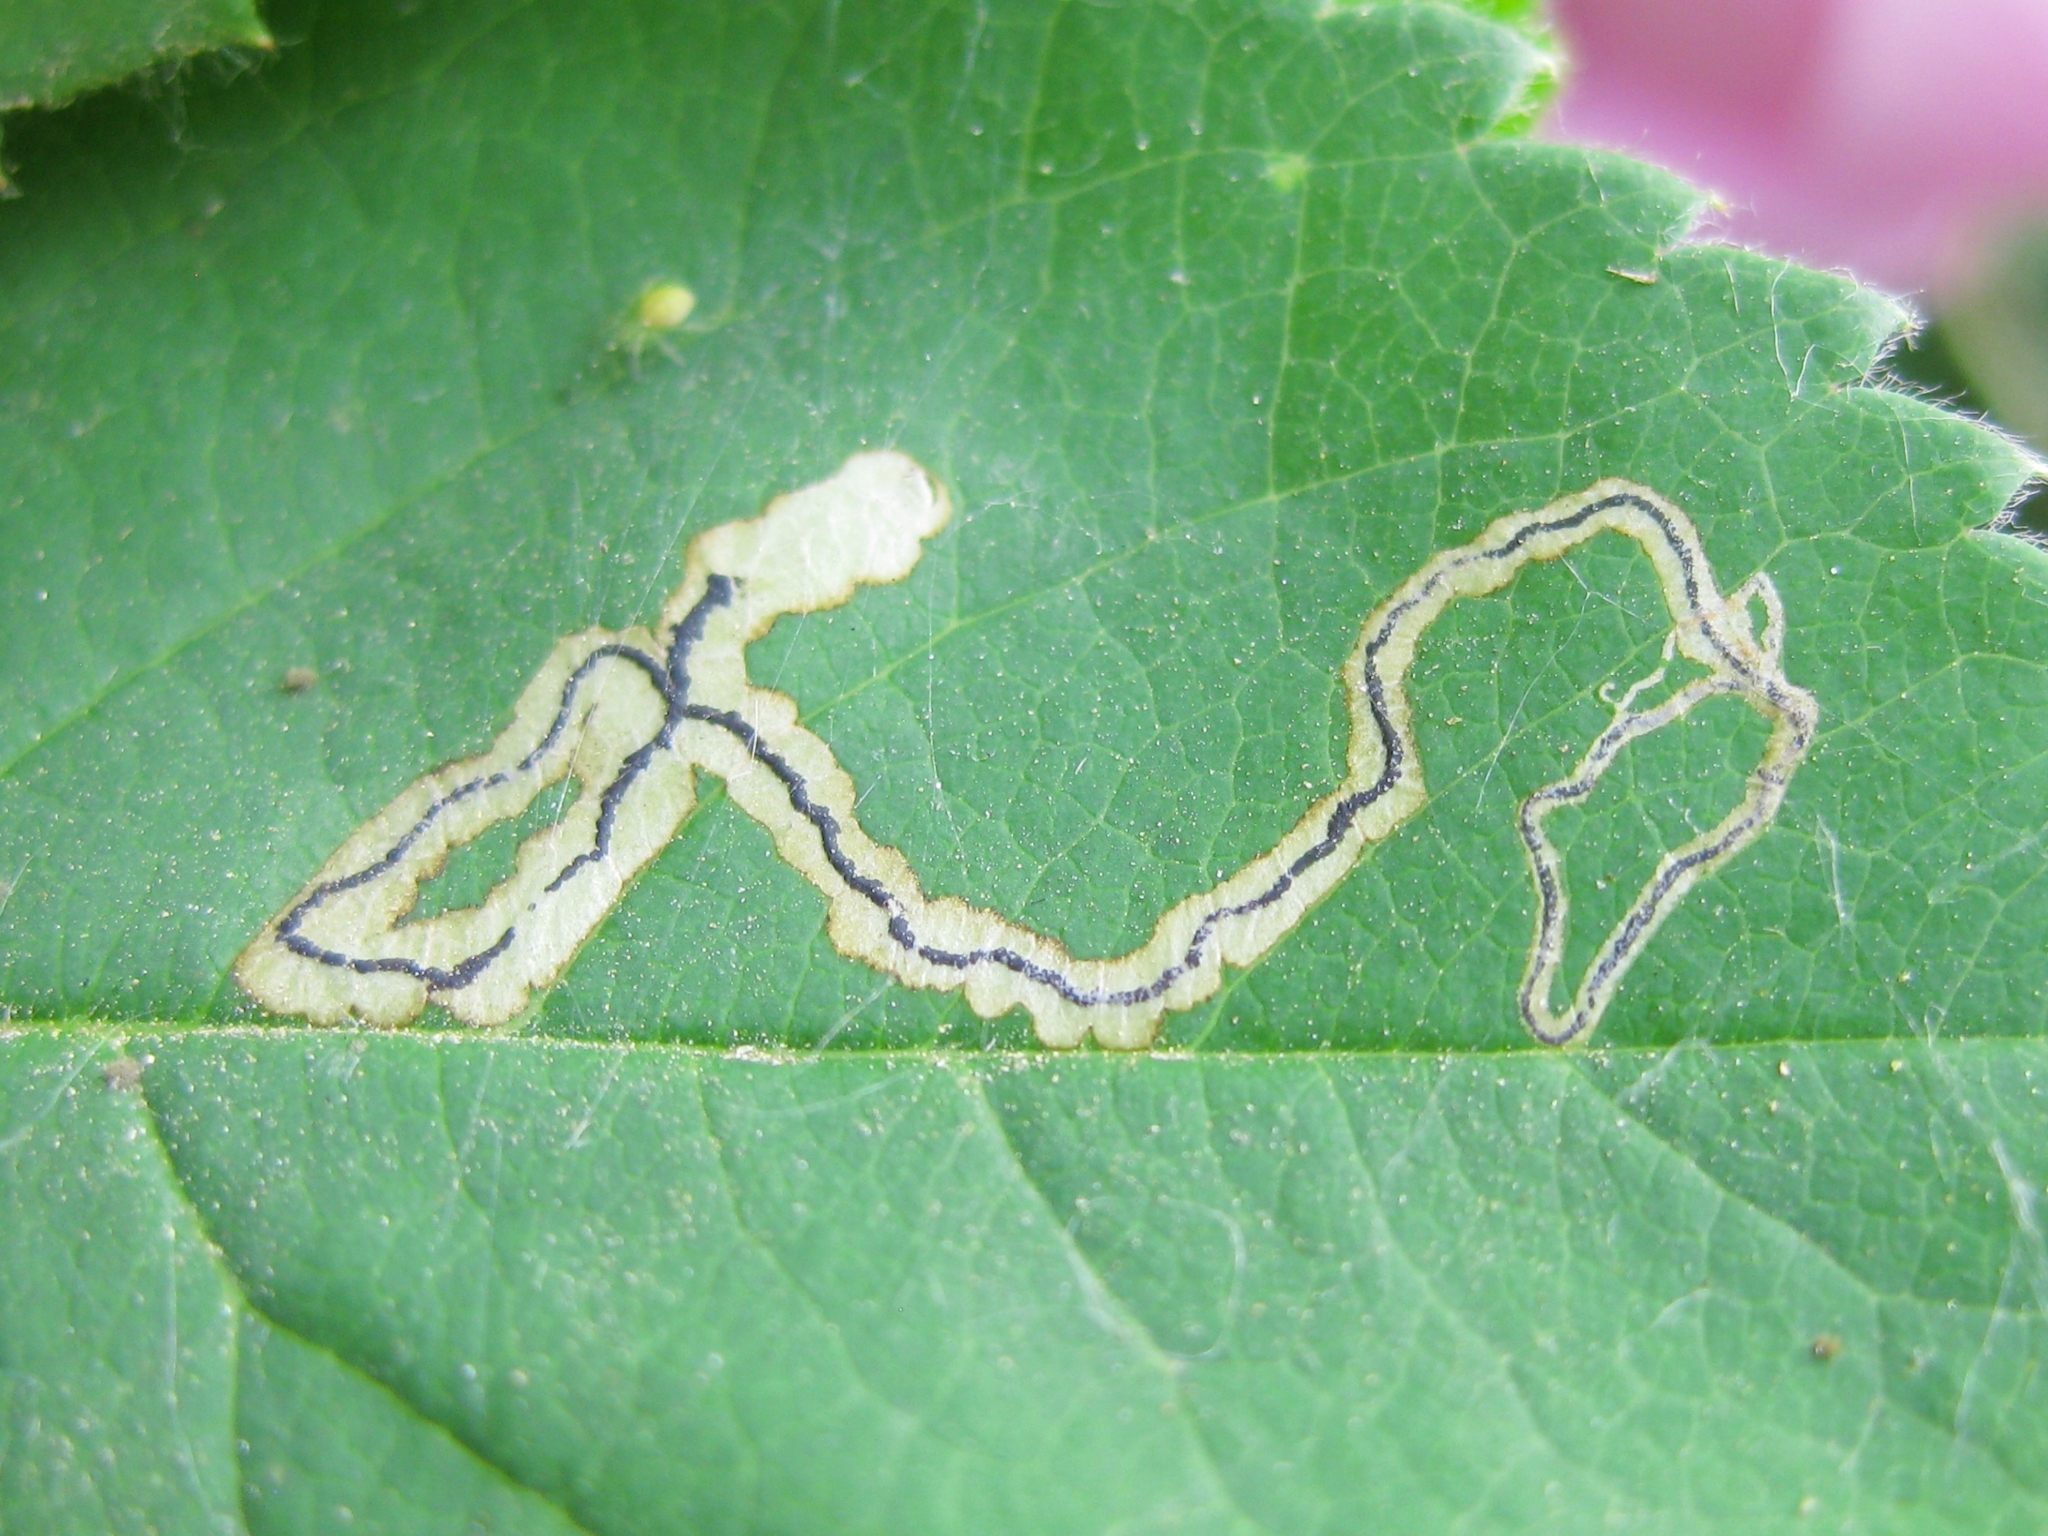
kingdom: Animalia
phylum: Arthropoda
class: Insecta
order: Lepidoptera
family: Nepticulidae
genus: Stigmella
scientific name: Stigmella
